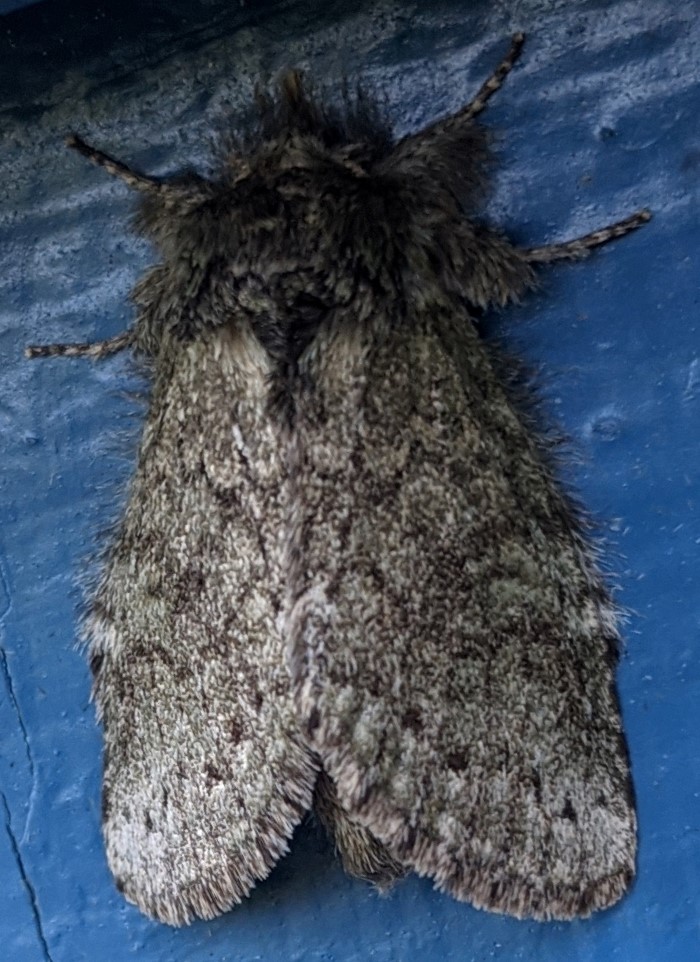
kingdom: Animalia
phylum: Arthropoda
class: Insecta
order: Lepidoptera
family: Notodontidae
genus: Disphragis
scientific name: Disphragis Cecrita guttivitta
